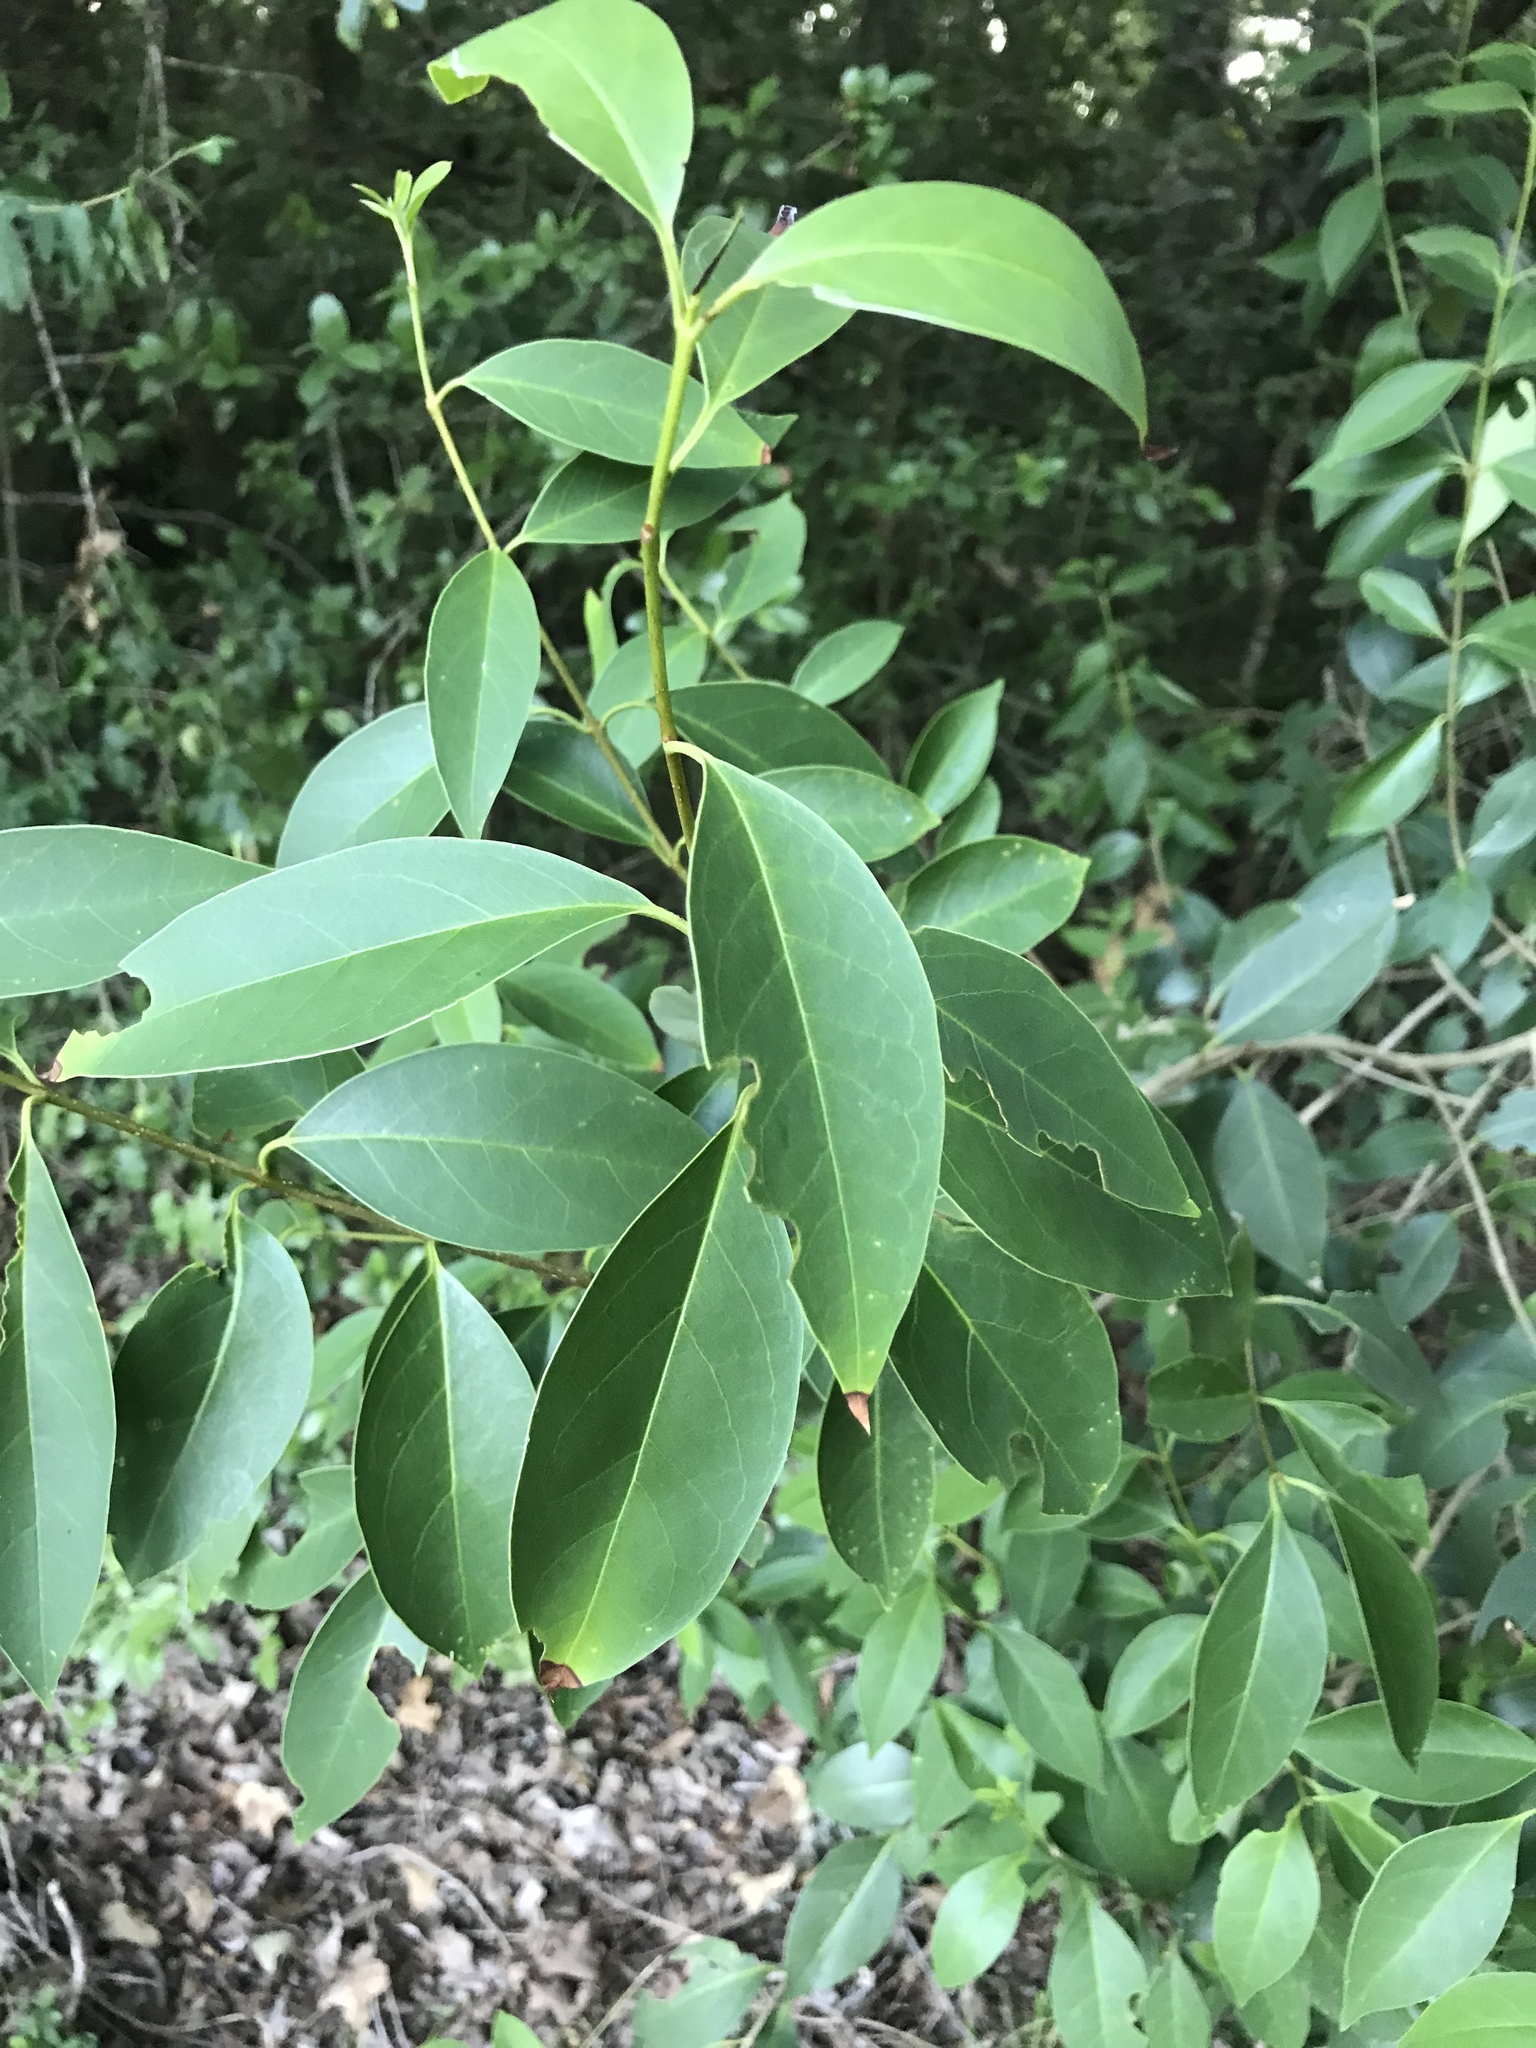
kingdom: Plantae
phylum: Tracheophyta
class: Magnoliopsida
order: Lamiales
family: Oleaceae
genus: Ligustrum
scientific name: Ligustrum lucidum
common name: Glossy privet
